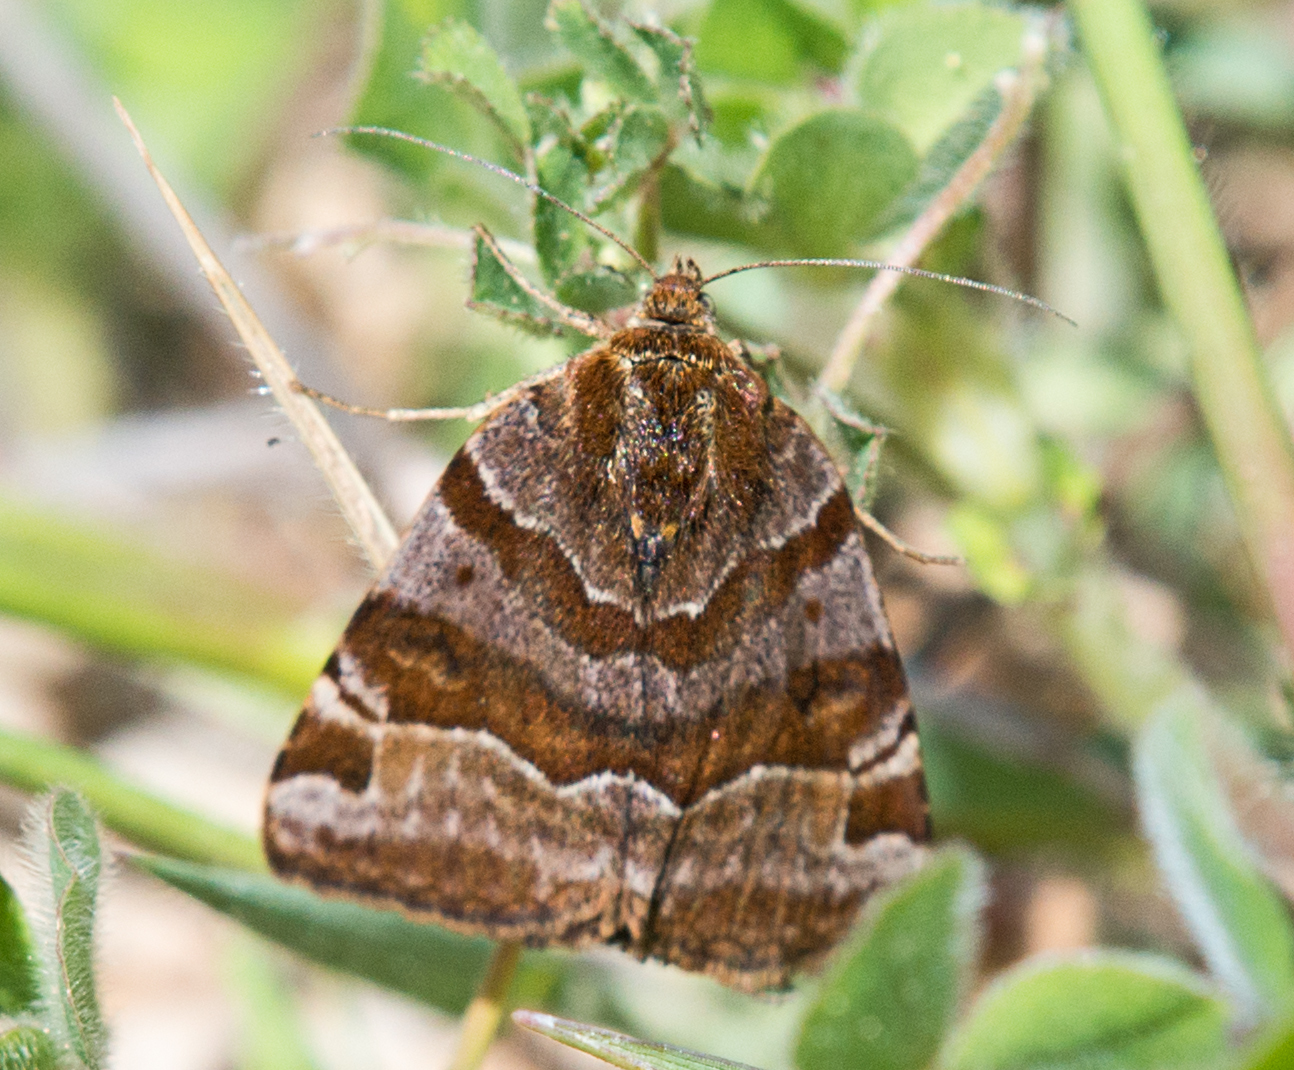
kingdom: Animalia
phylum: Arthropoda
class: Insecta
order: Lepidoptera
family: Erebidae
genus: Euclidia
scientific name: Euclidia glyphica
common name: Burnet companion
